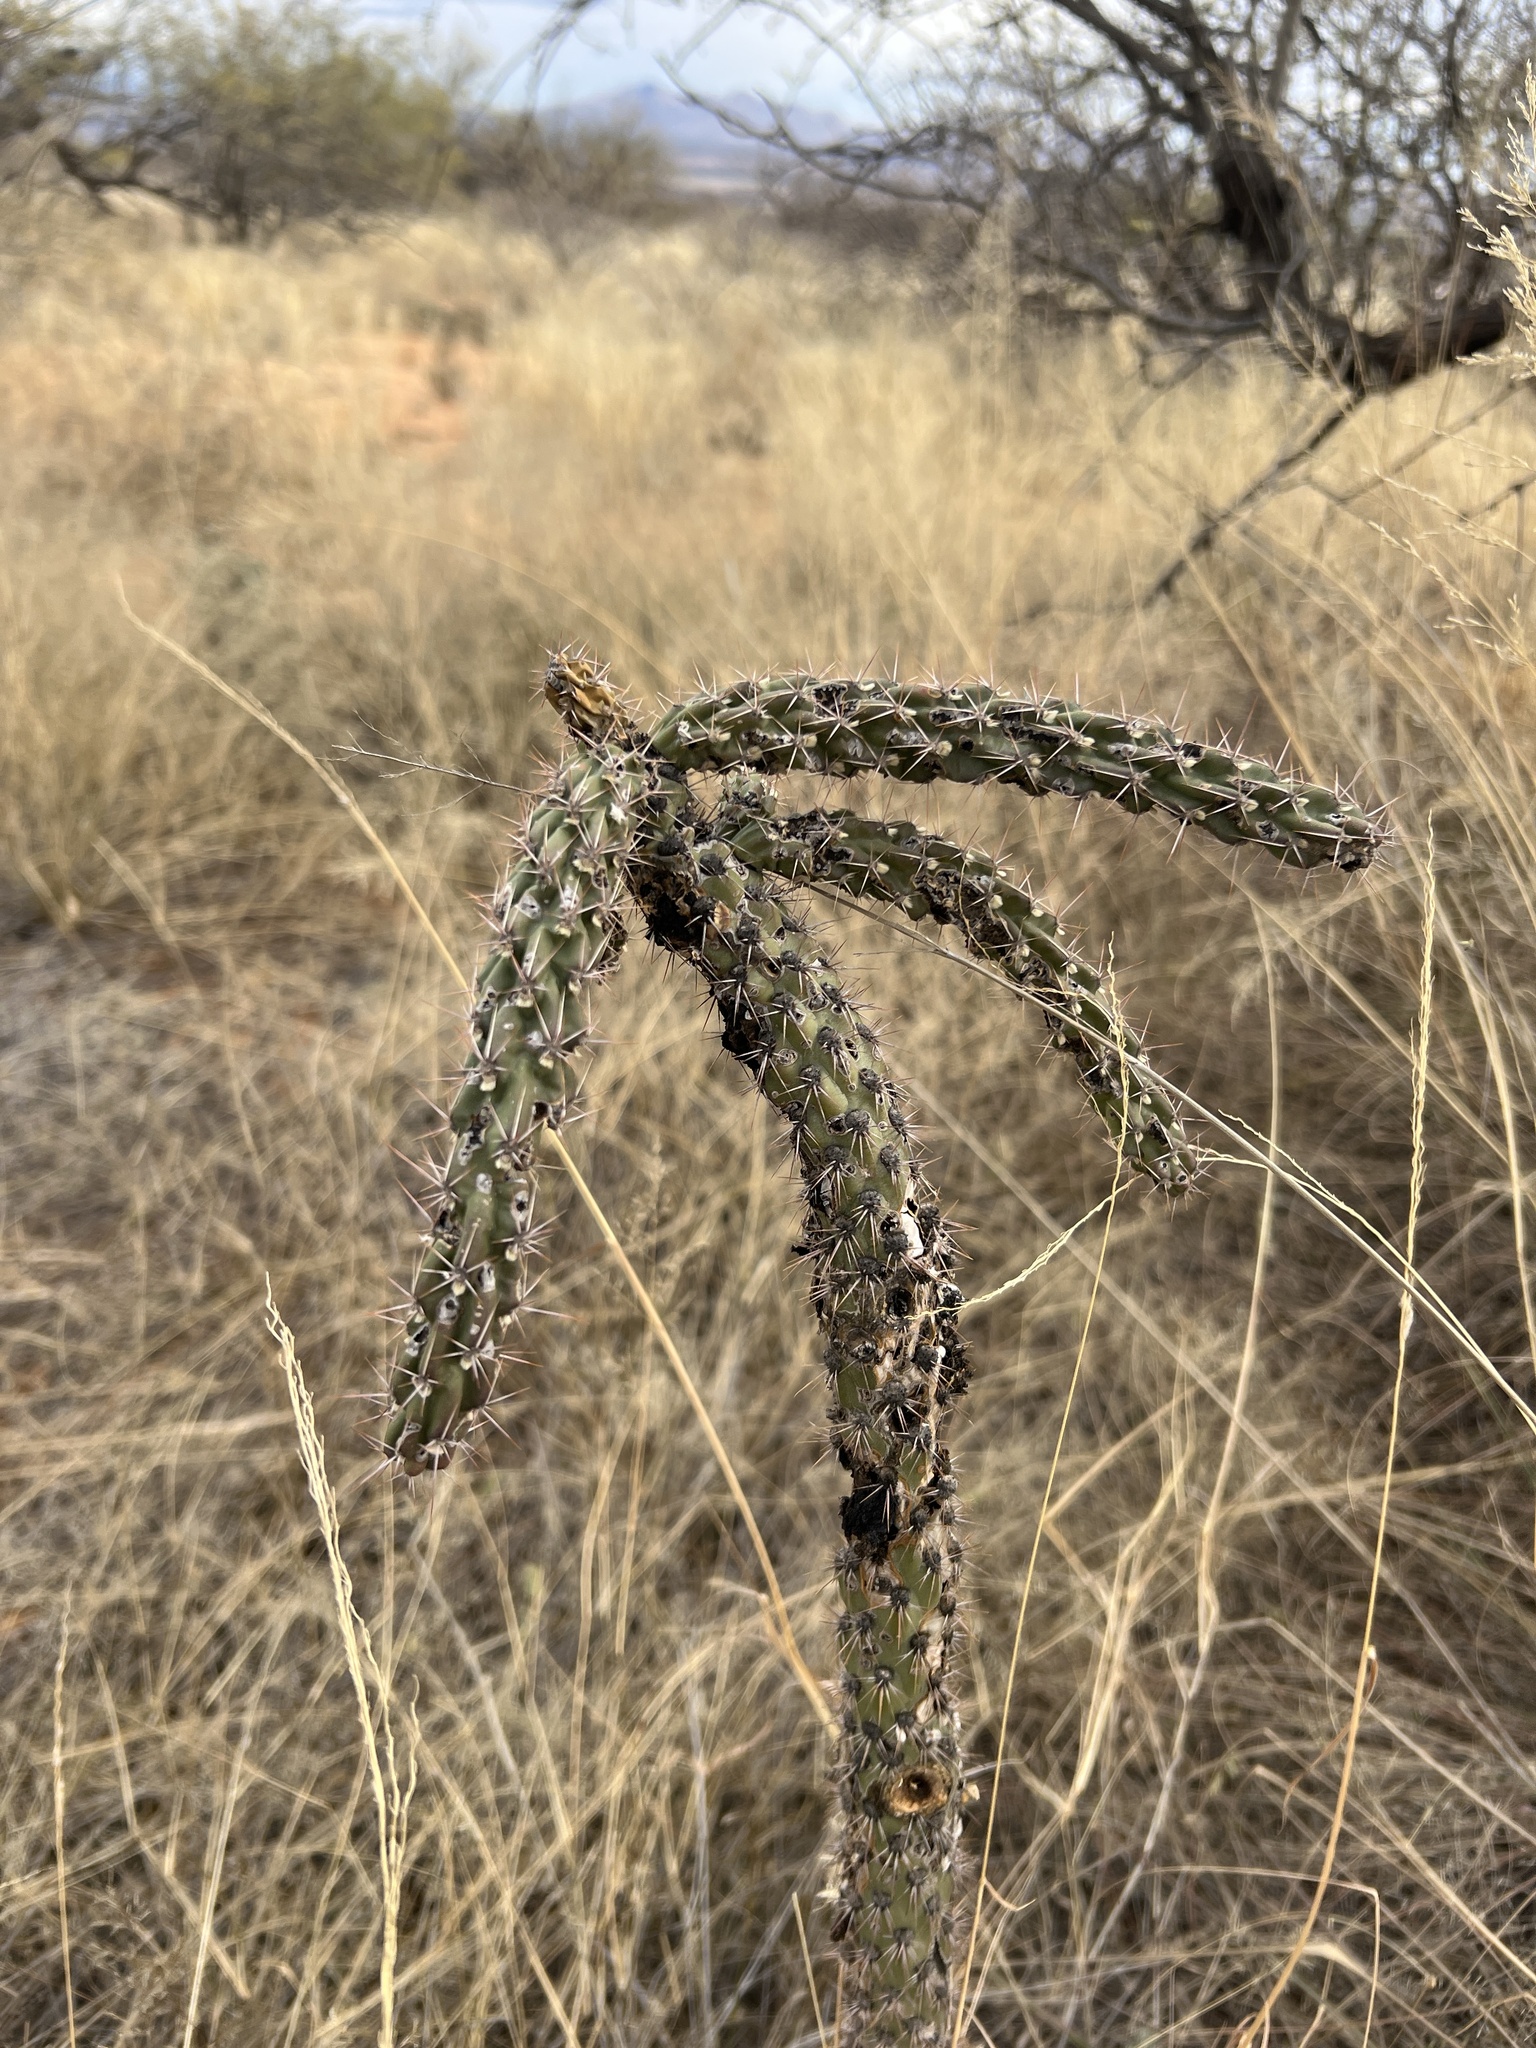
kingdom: Plantae
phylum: Tracheophyta
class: Magnoliopsida
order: Caryophyllales
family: Cactaceae
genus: Cylindropuntia
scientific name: Cylindropuntia imbricata
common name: Candelabrum cactus
